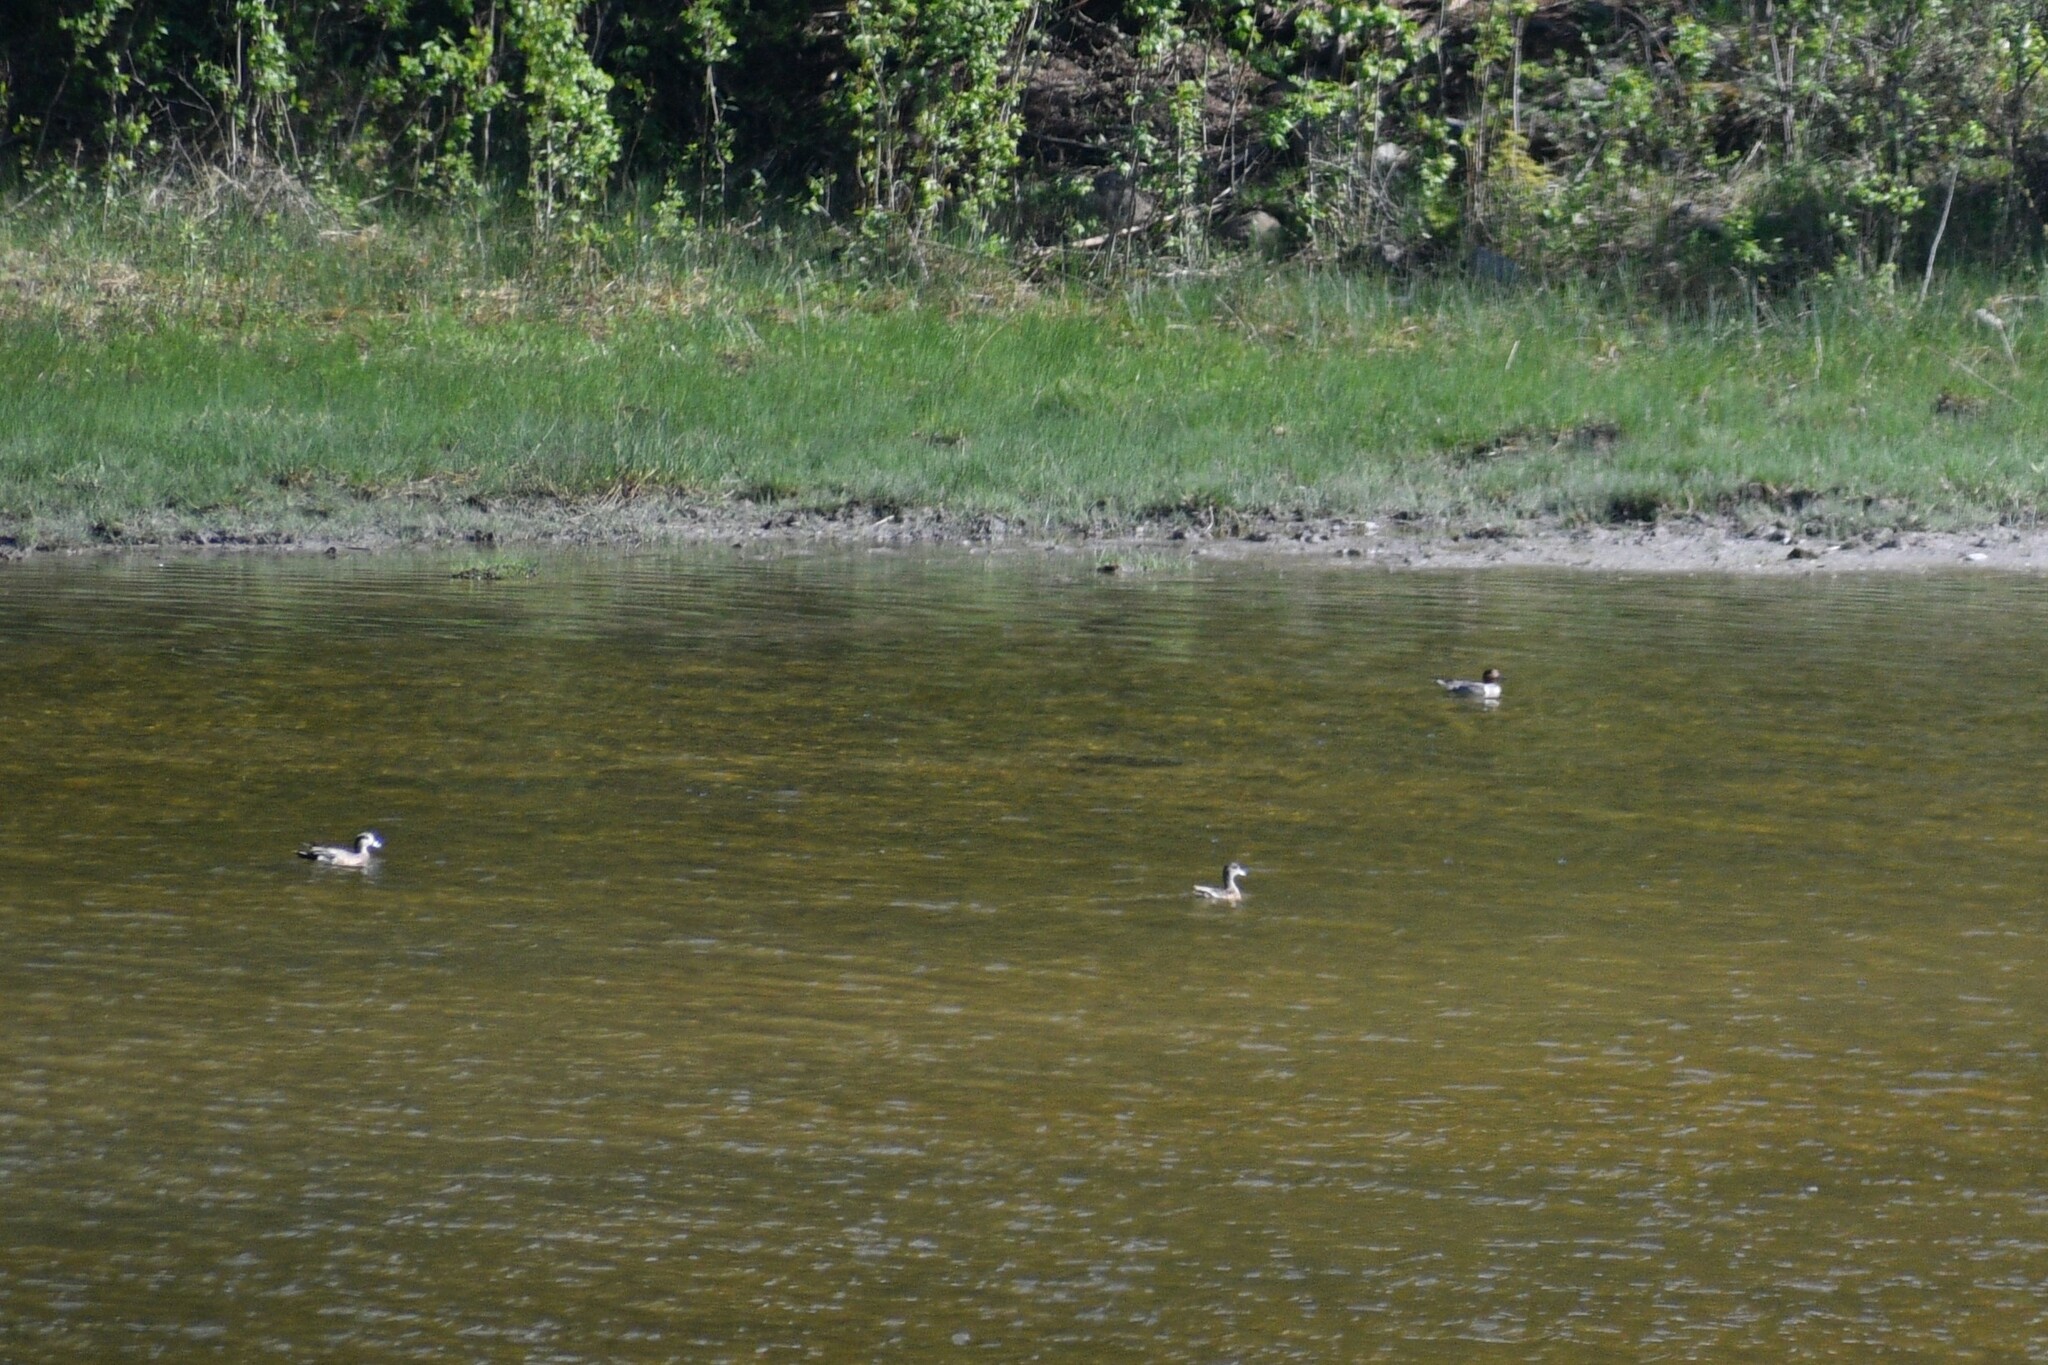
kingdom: Animalia
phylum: Chordata
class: Aves
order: Anseriformes
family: Anatidae
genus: Anas
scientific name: Anas crecca
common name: Eurasian teal
